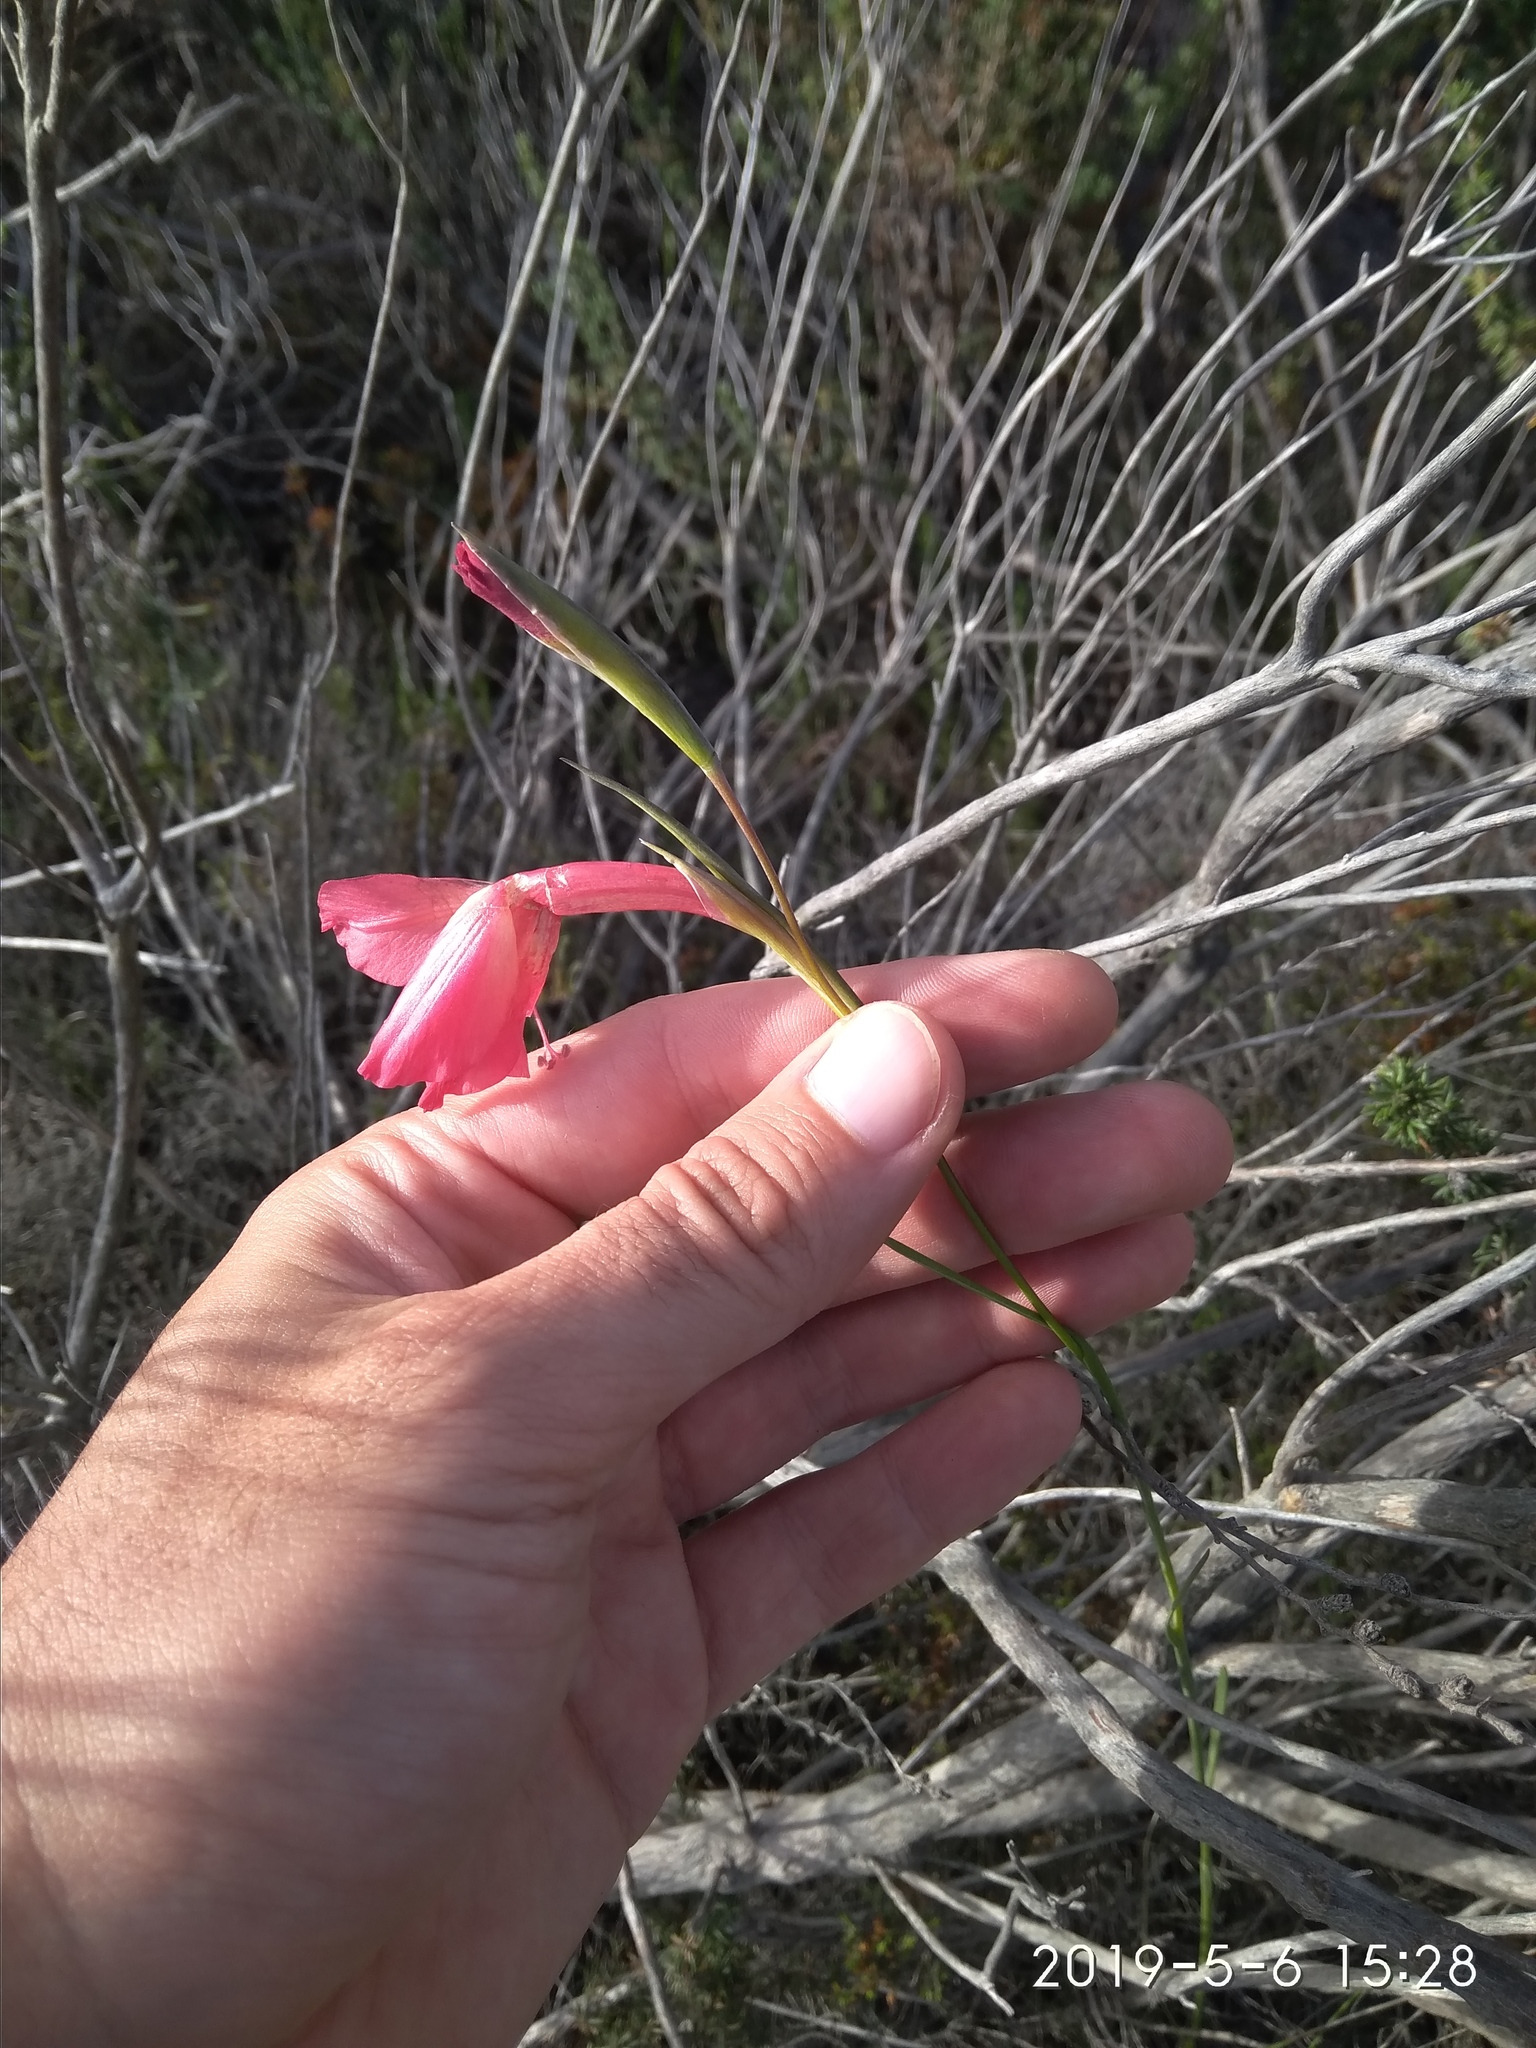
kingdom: Plantae
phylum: Tracheophyta
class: Liliopsida
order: Asparagales
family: Iridaceae
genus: Gladiolus
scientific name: Gladiolus meridionalis
